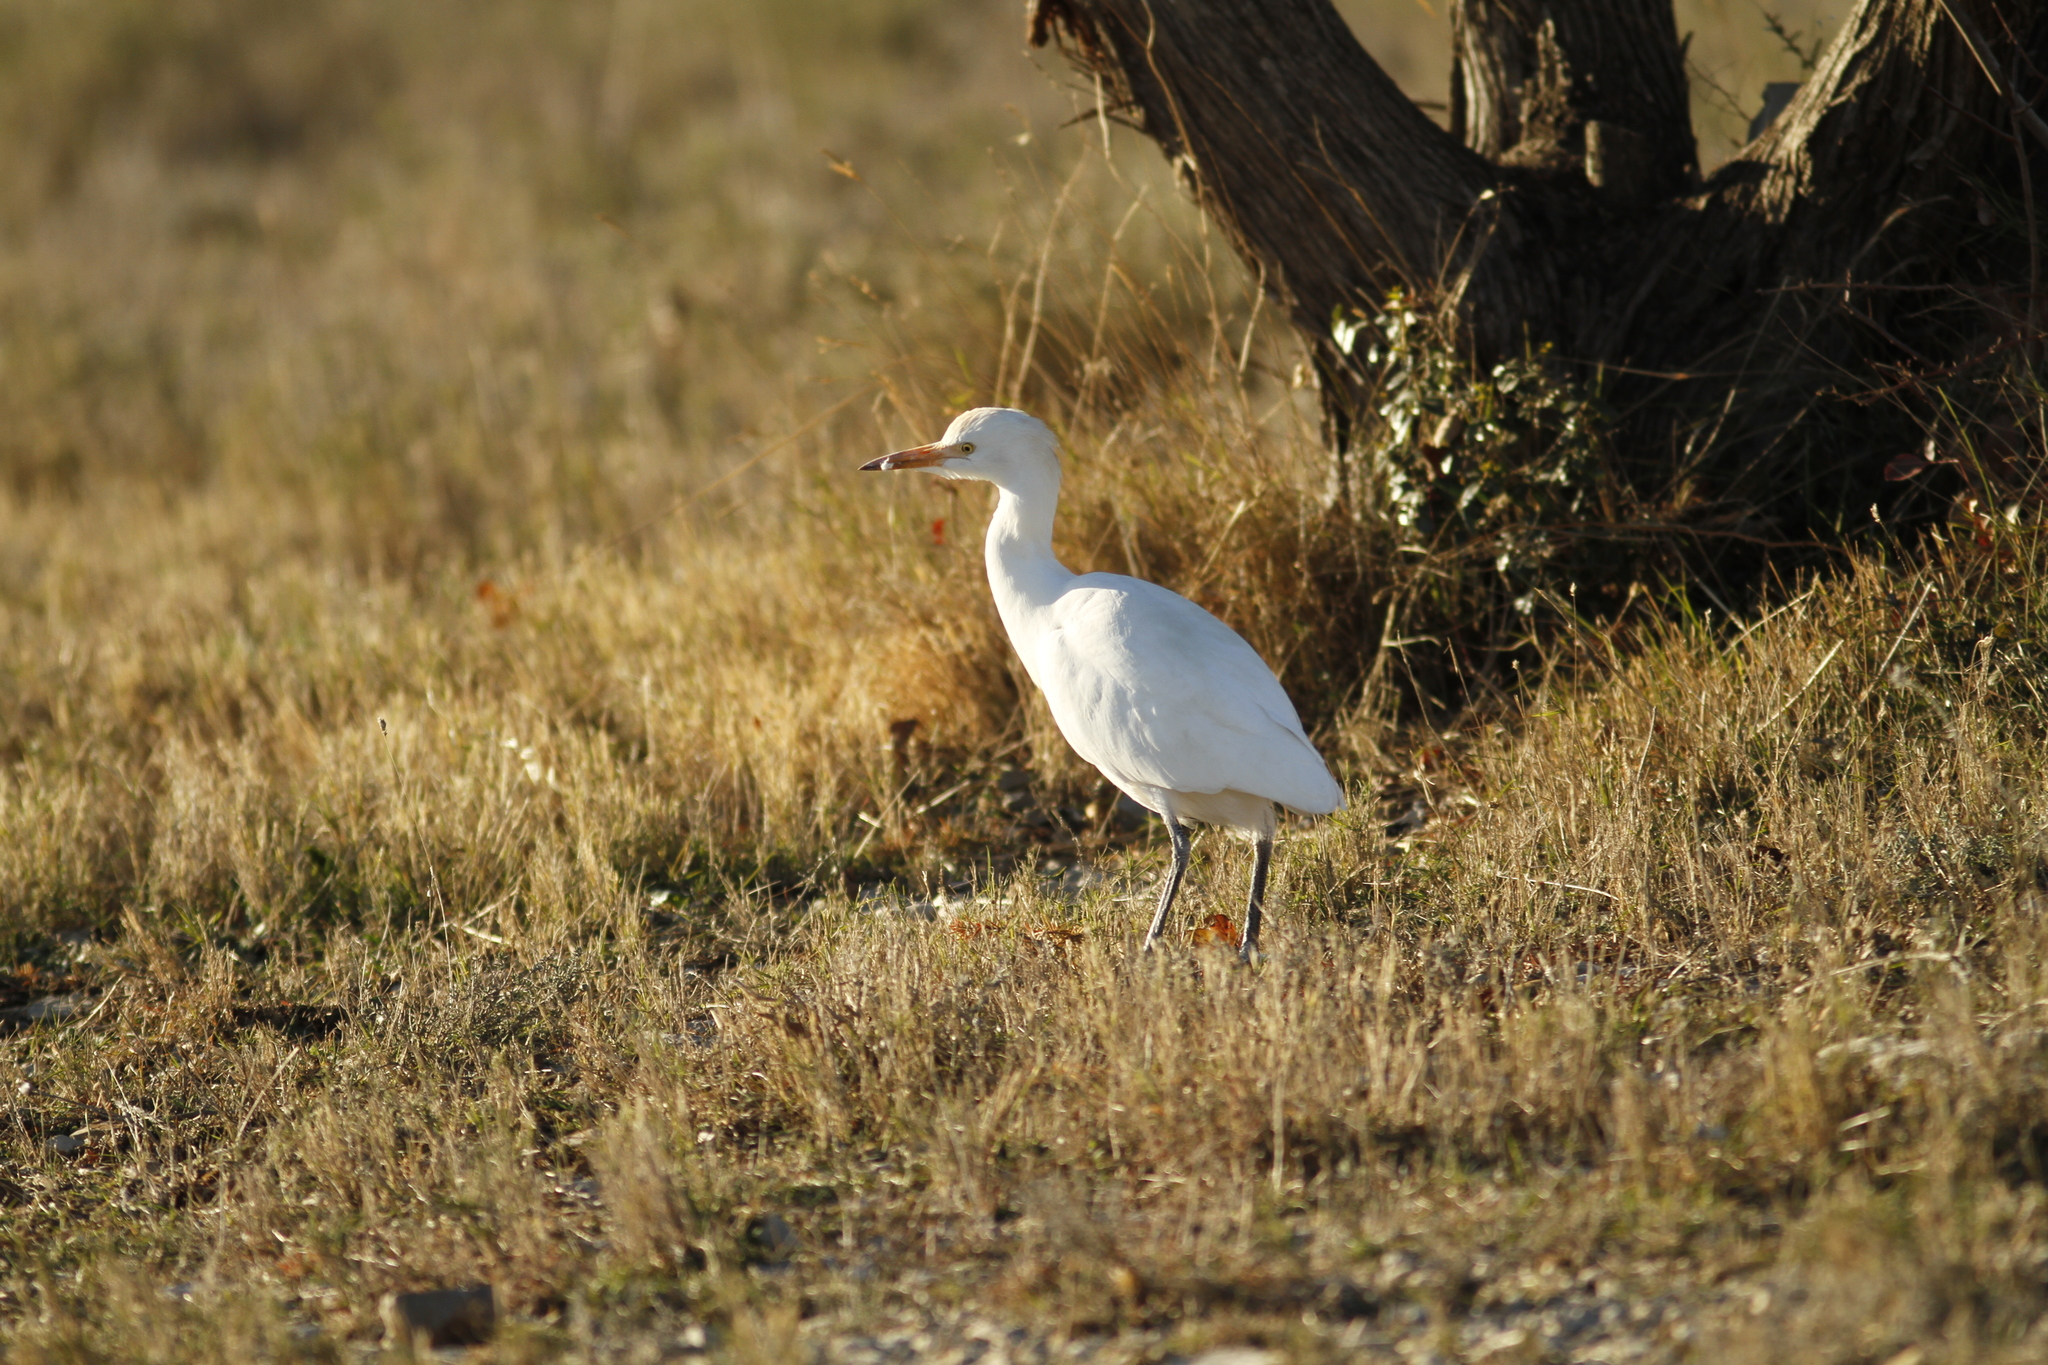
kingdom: Animalia
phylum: Chordata
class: Aves
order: Pelecaniformes
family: Ardeidae
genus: Bubulcus
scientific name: Bubulcus ibis
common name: Cattle egret
